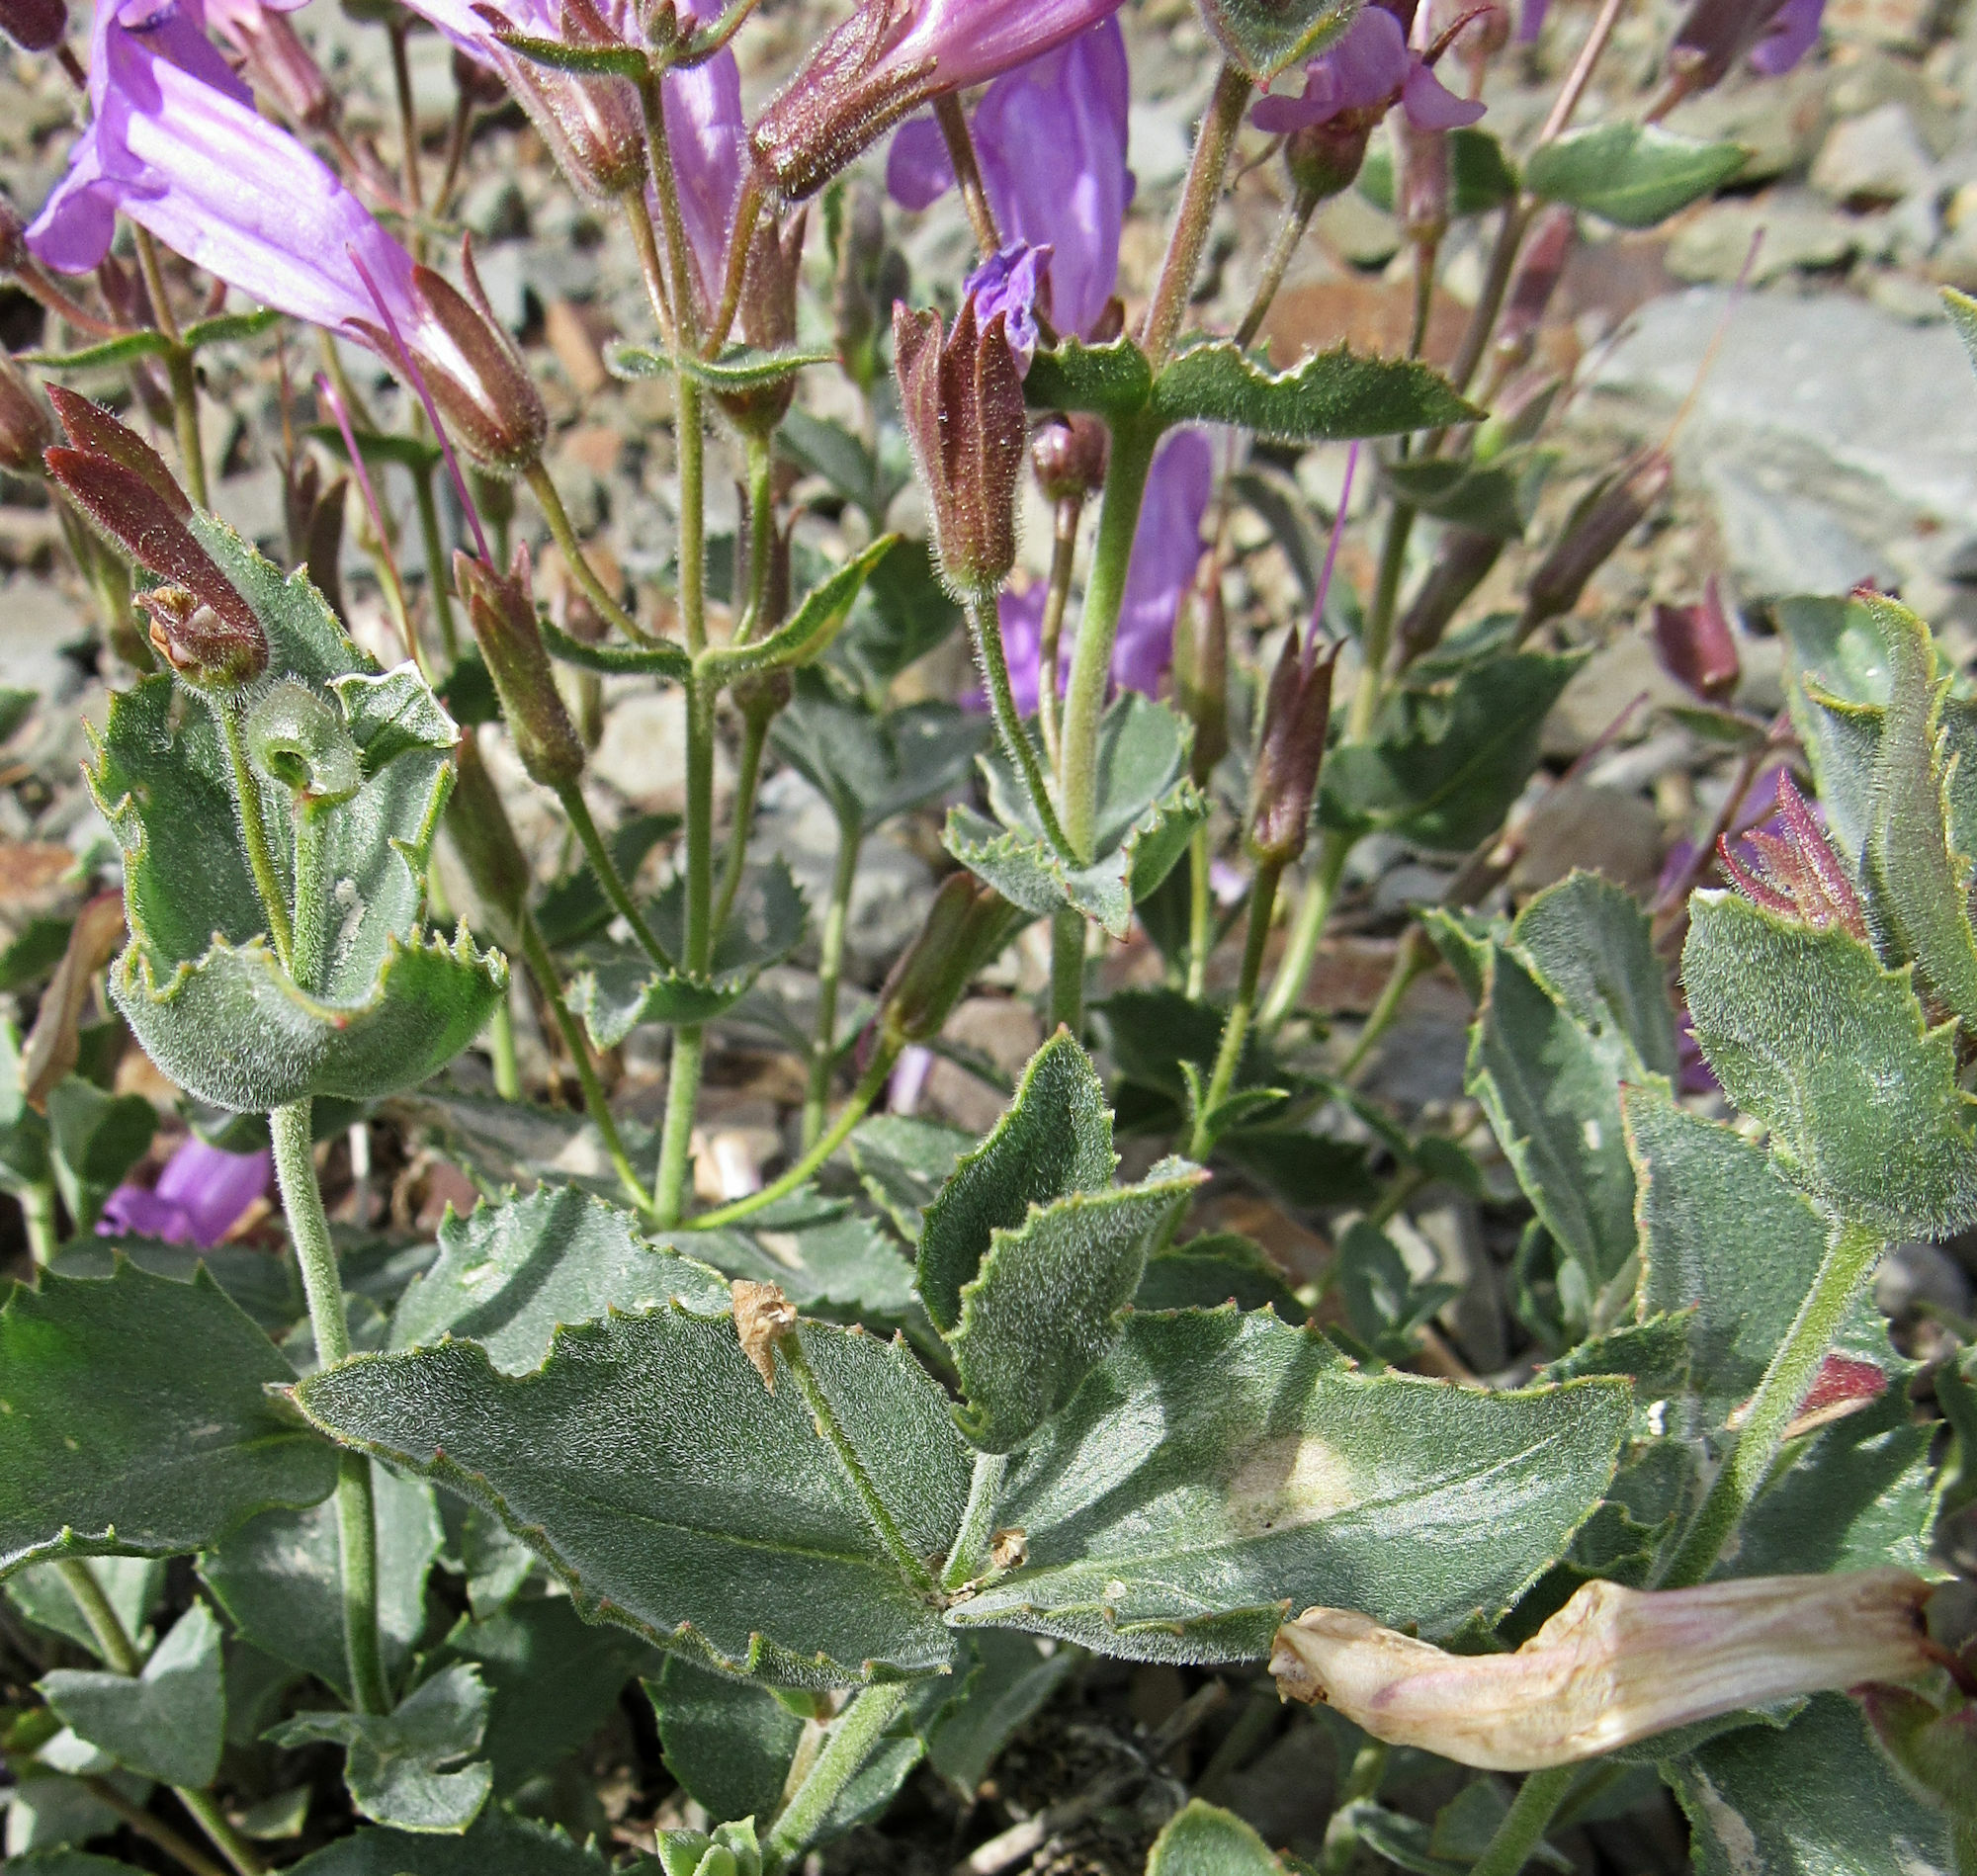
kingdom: Plantae
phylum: Tracheophyta
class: Magnoliopsida
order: Lamiales
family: Plantaginaceae
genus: Penstemon
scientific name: Penstemon montanus
